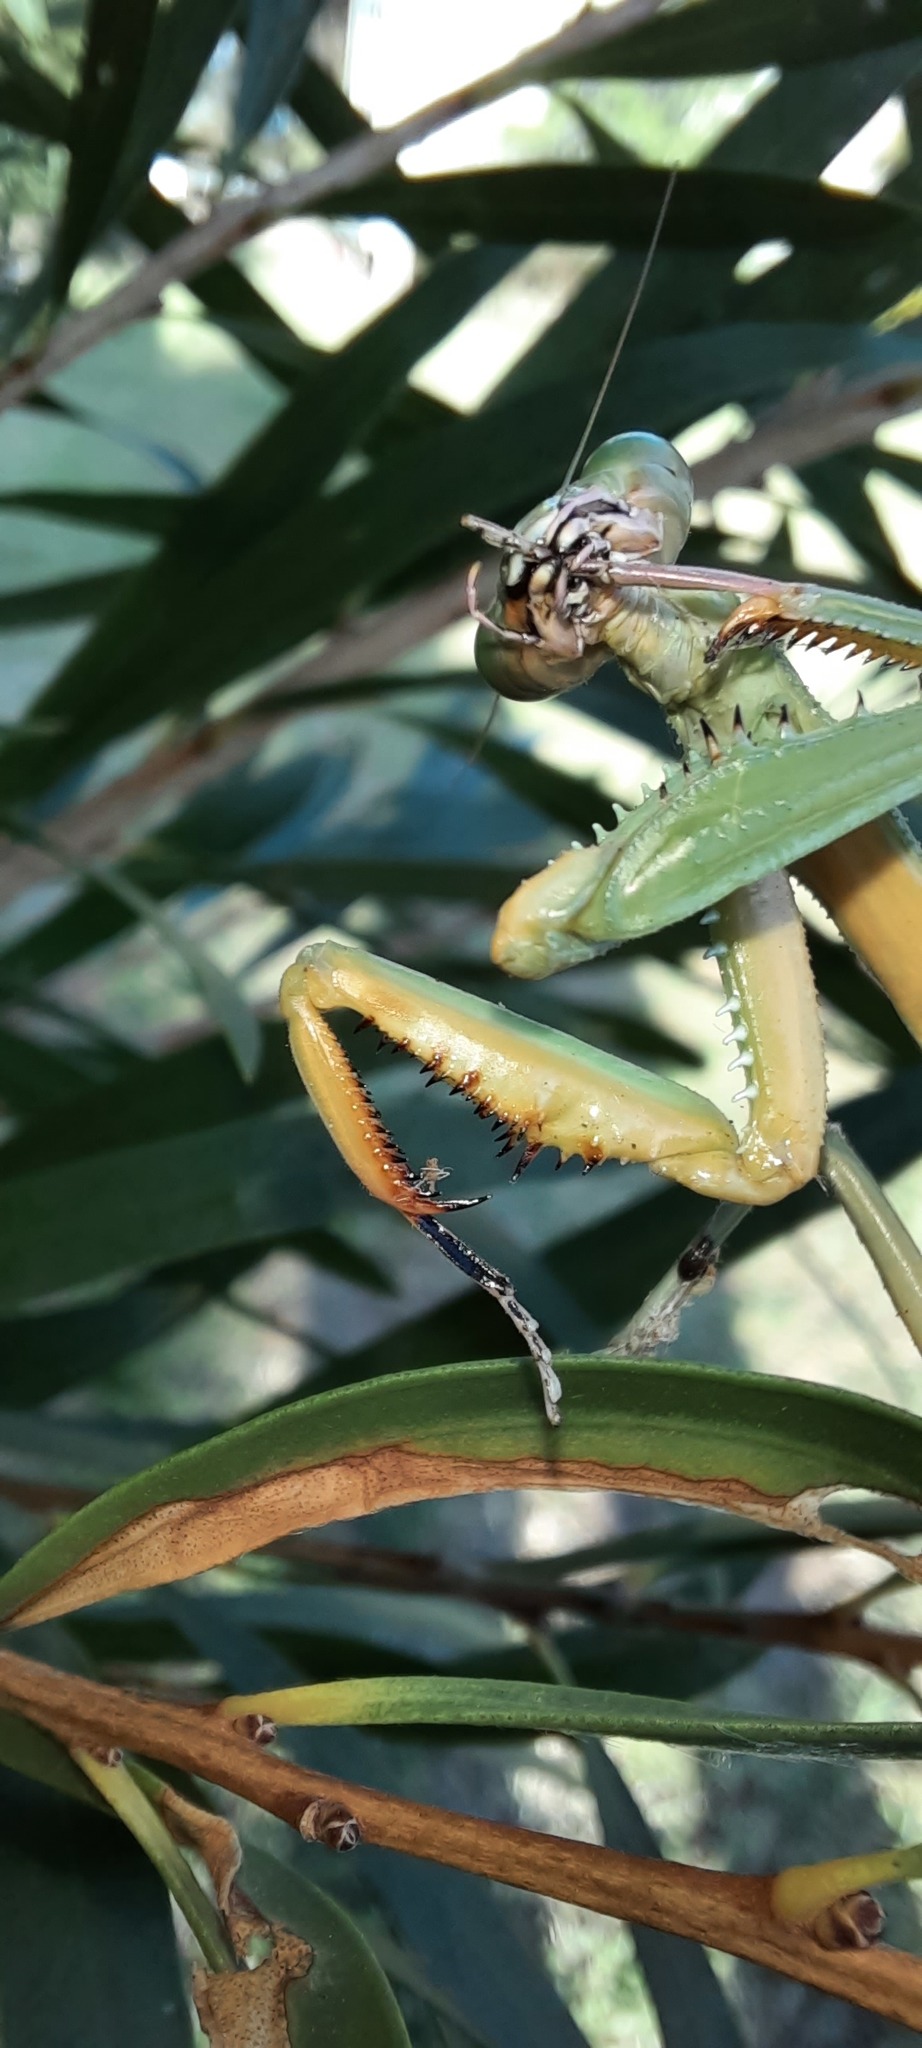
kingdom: Animalia
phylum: Arthropoda
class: Insecta
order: Mantodea
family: Mantidae
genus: Sphodropoda
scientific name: Sphodropoda viridis
